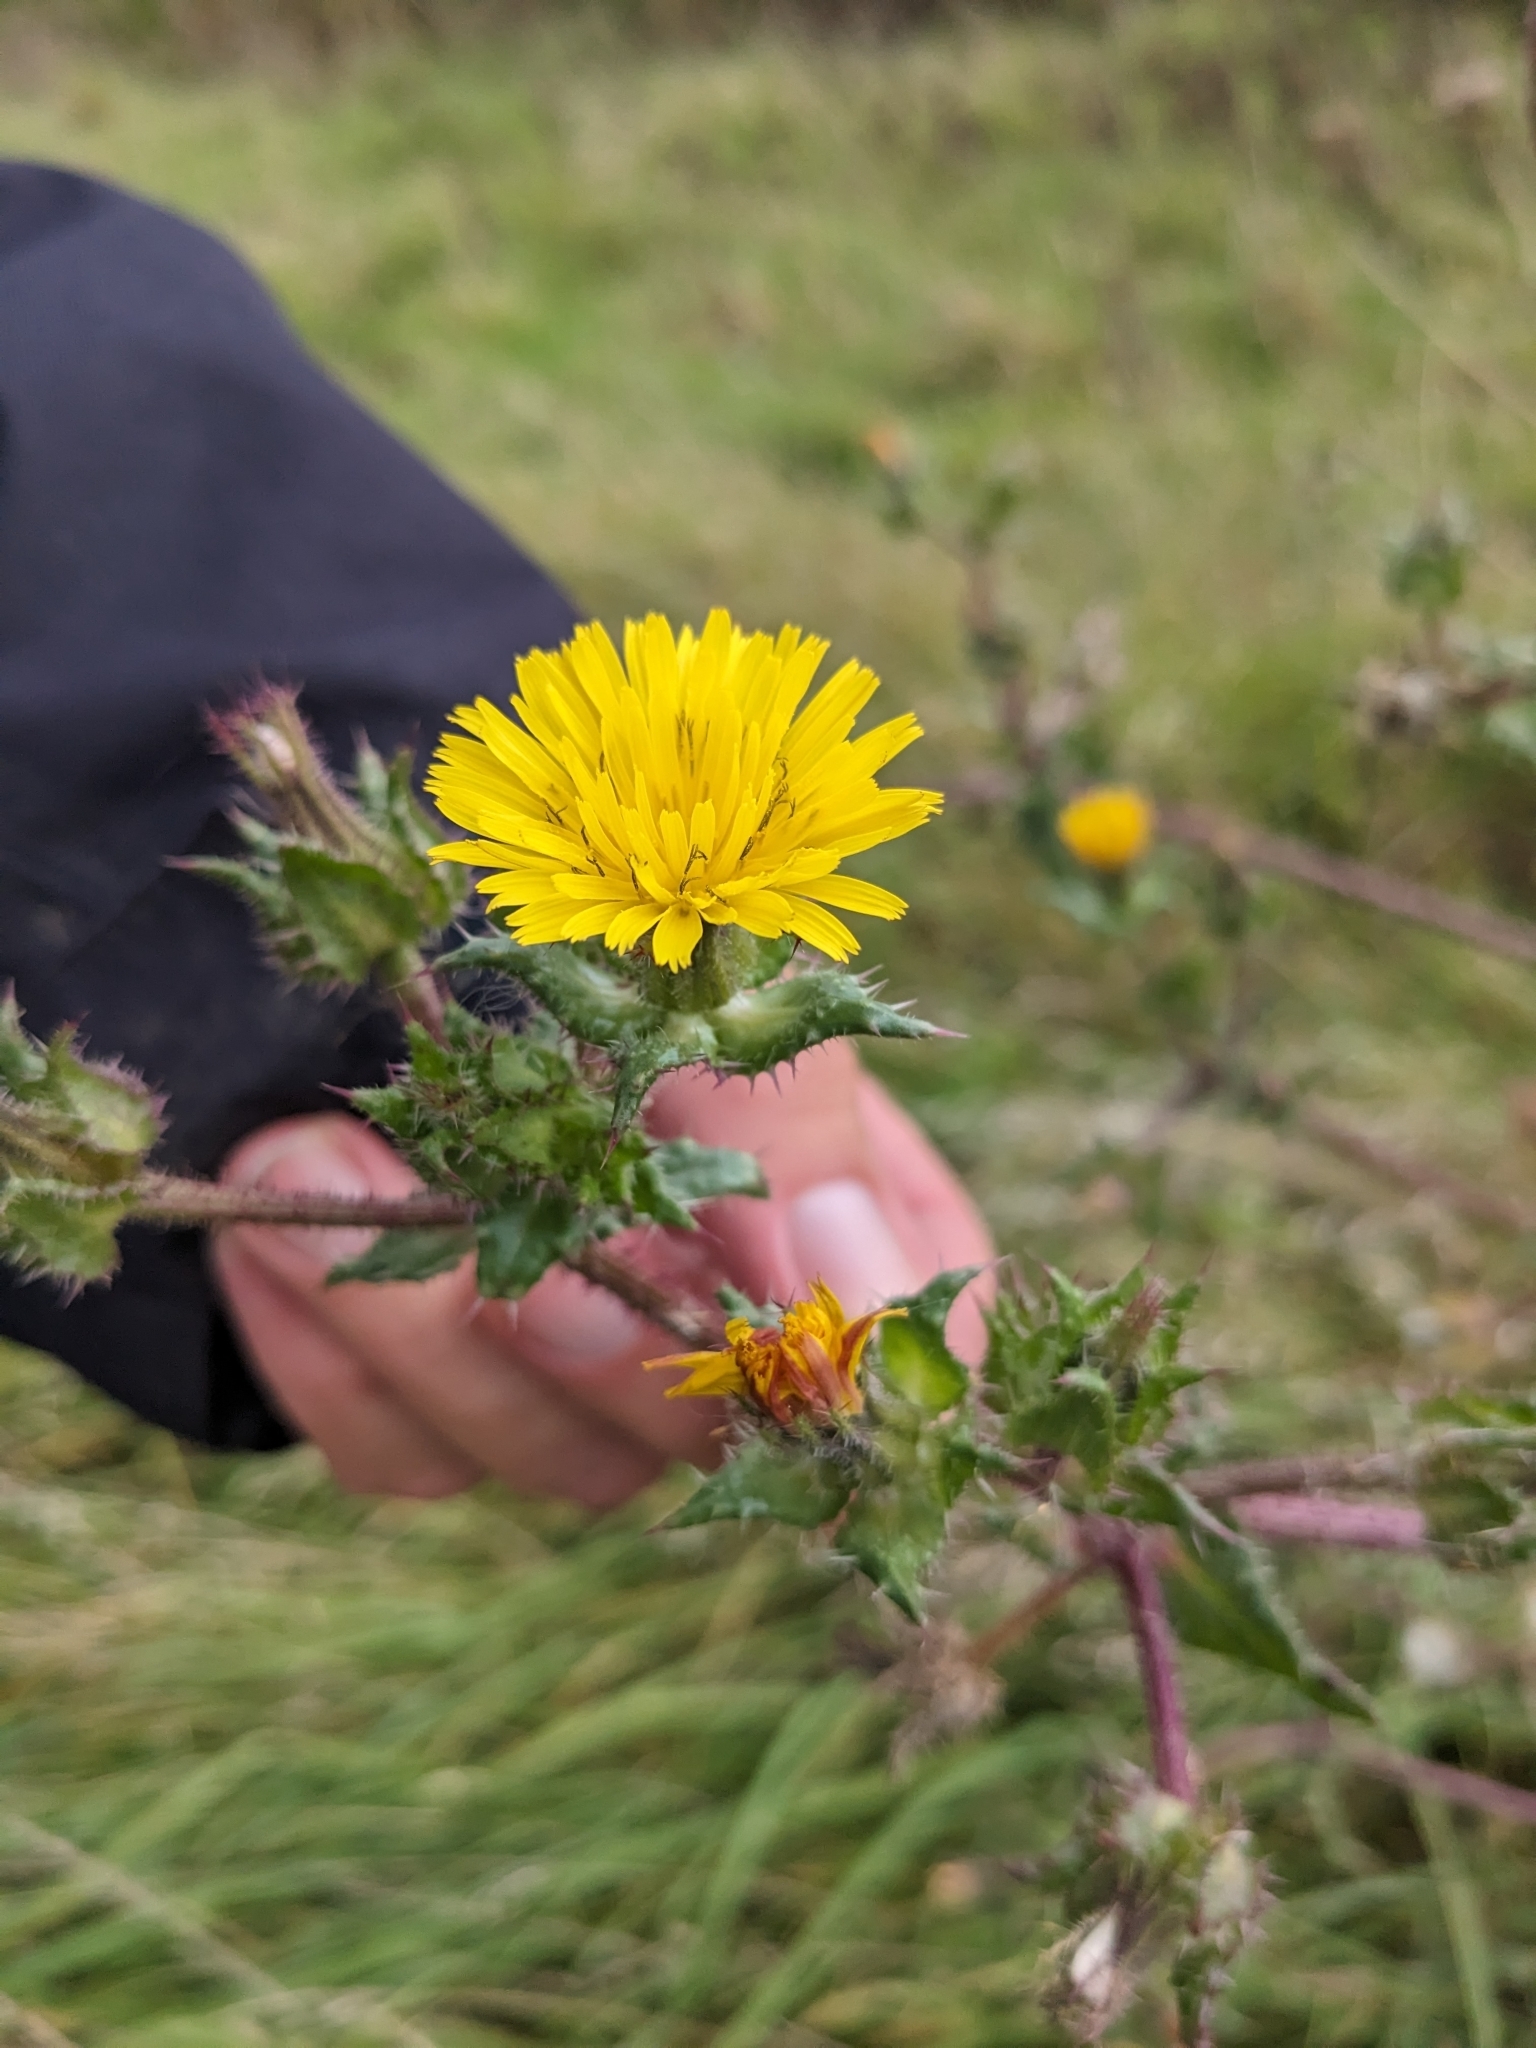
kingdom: Plantae
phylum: Tracheophyta
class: Magnoliopsida
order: Asterales
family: Asteraceae
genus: Helminthotheca
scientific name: Helminthotheca echioides
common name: Ox-tongue
